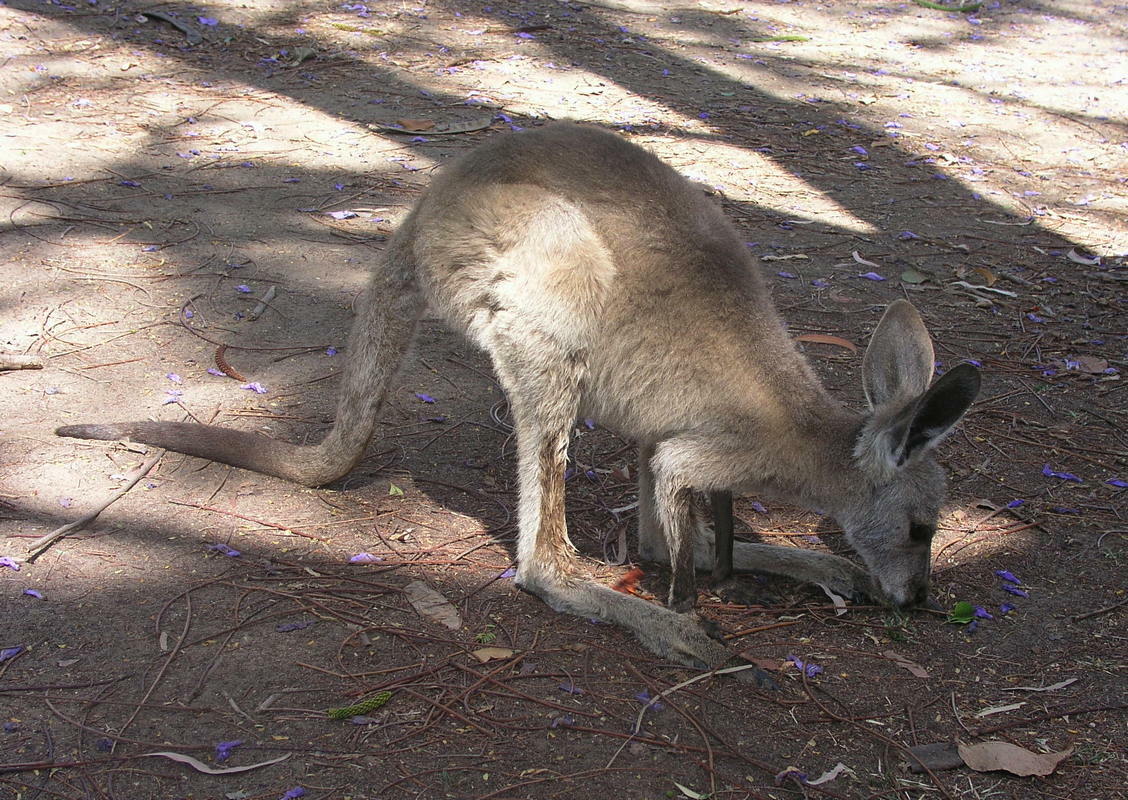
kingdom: Animalia
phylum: Chordata
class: Mammalia
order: Diprotodontia
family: Macropodidae
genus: Macropus
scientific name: Macropus giganteus
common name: Eastern grey kangaroo
